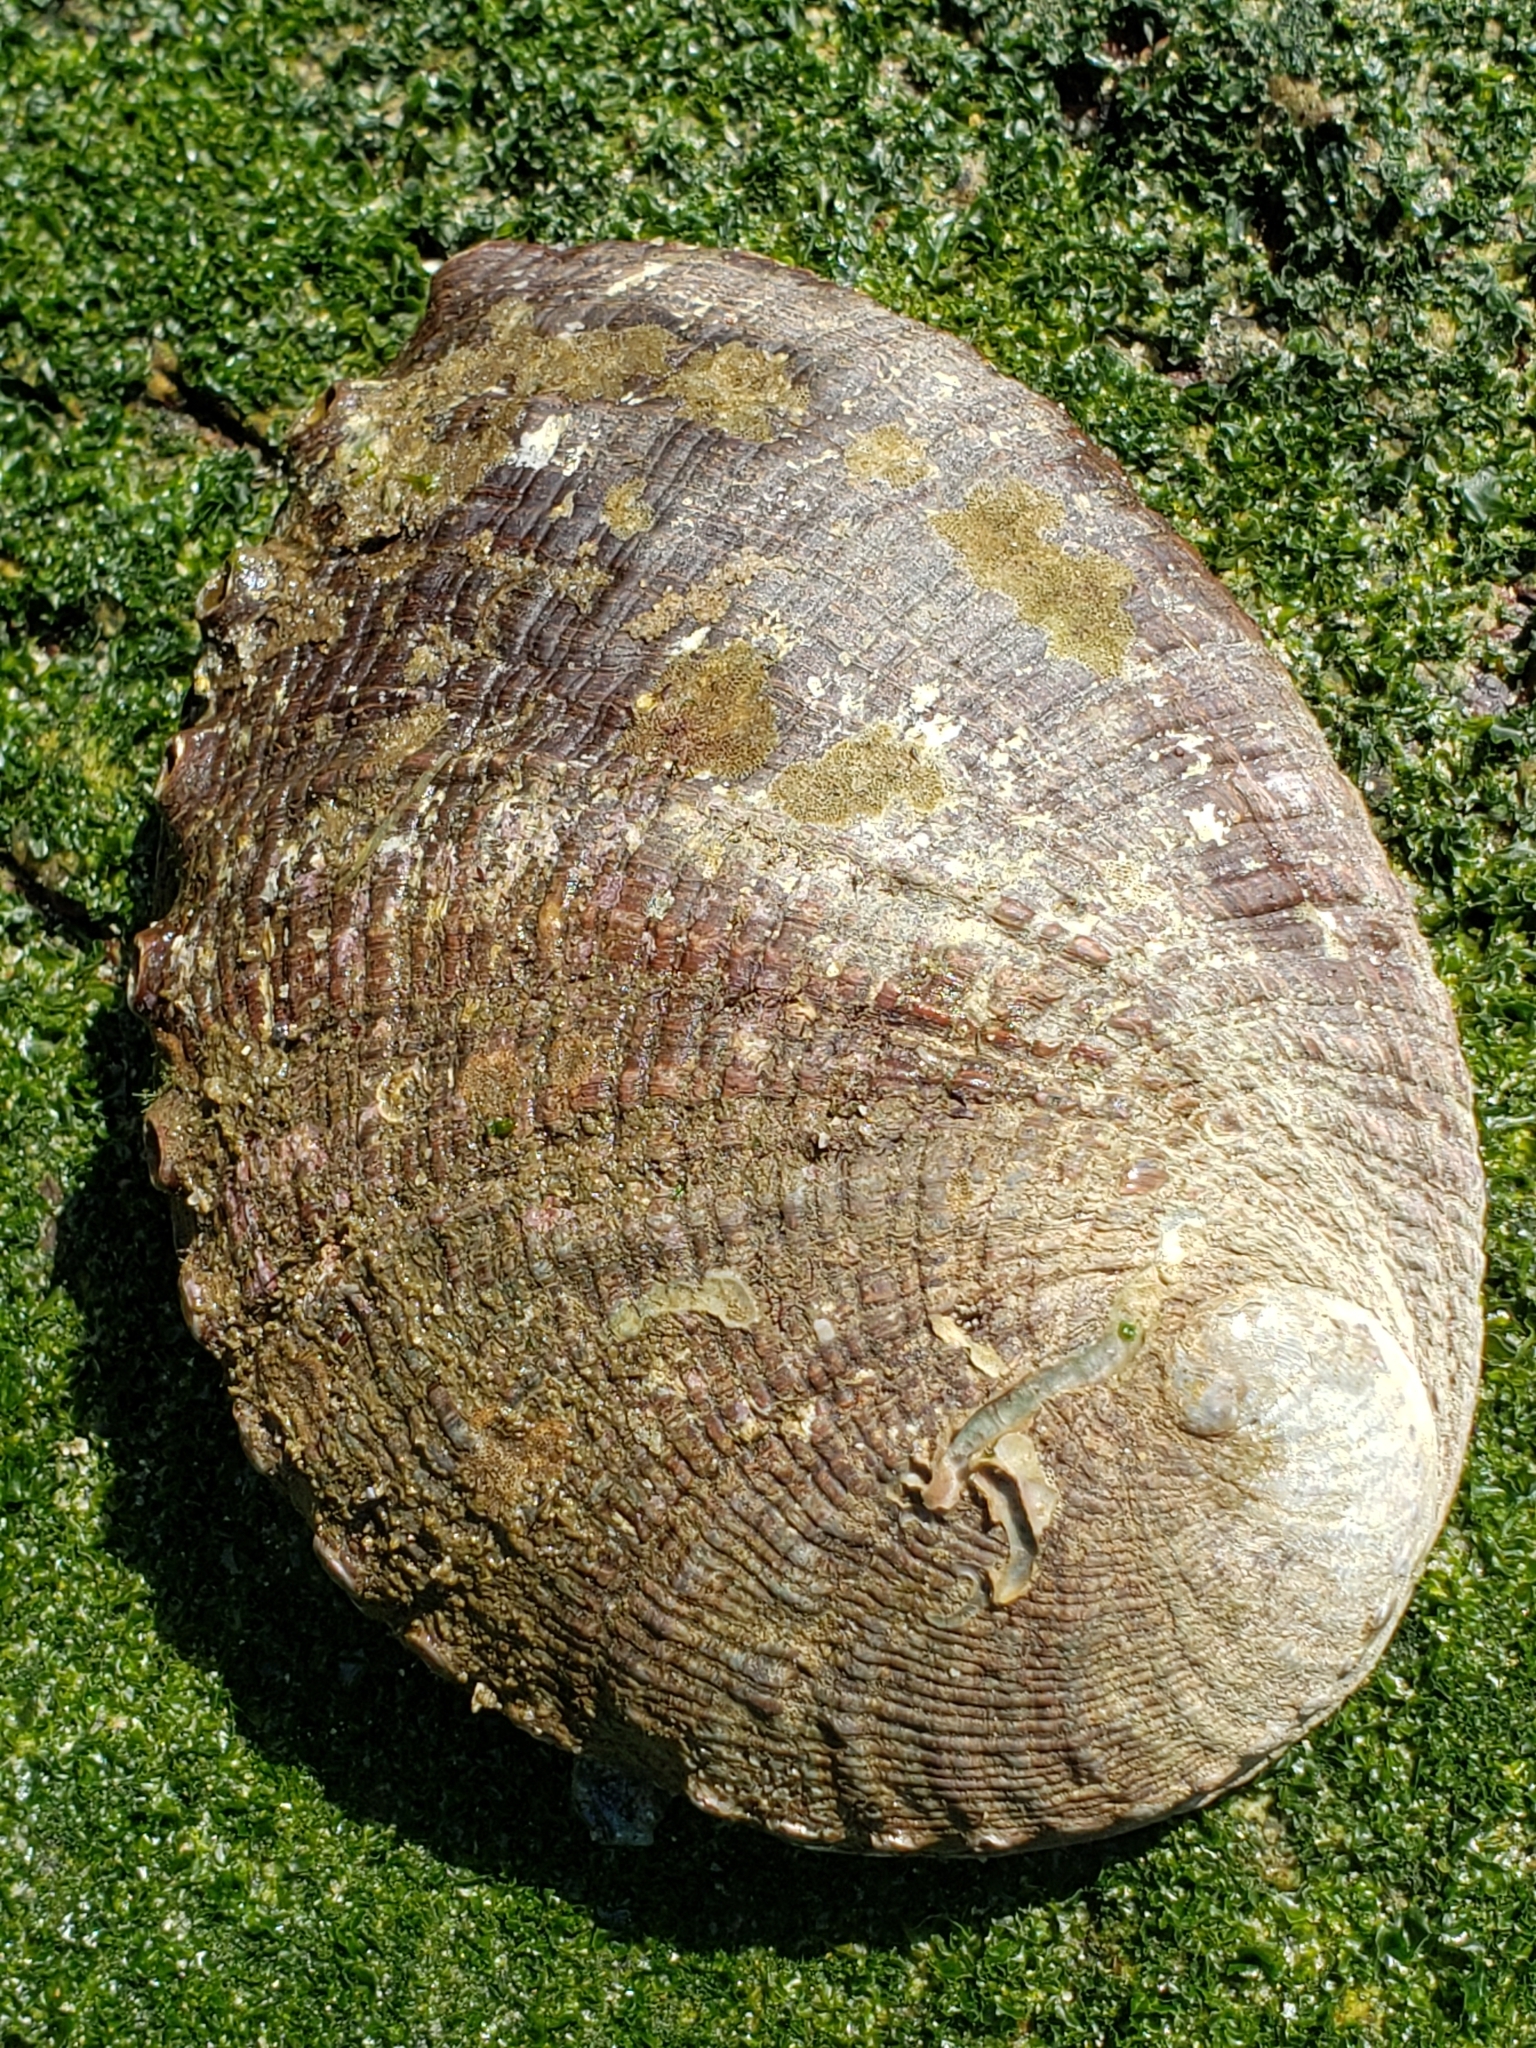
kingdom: Animalia
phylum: Mollusca
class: Gastropoda
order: Lepetellida
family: Haliotidae
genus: Haliotis
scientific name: Haliotis fulgens
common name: Green abalone
